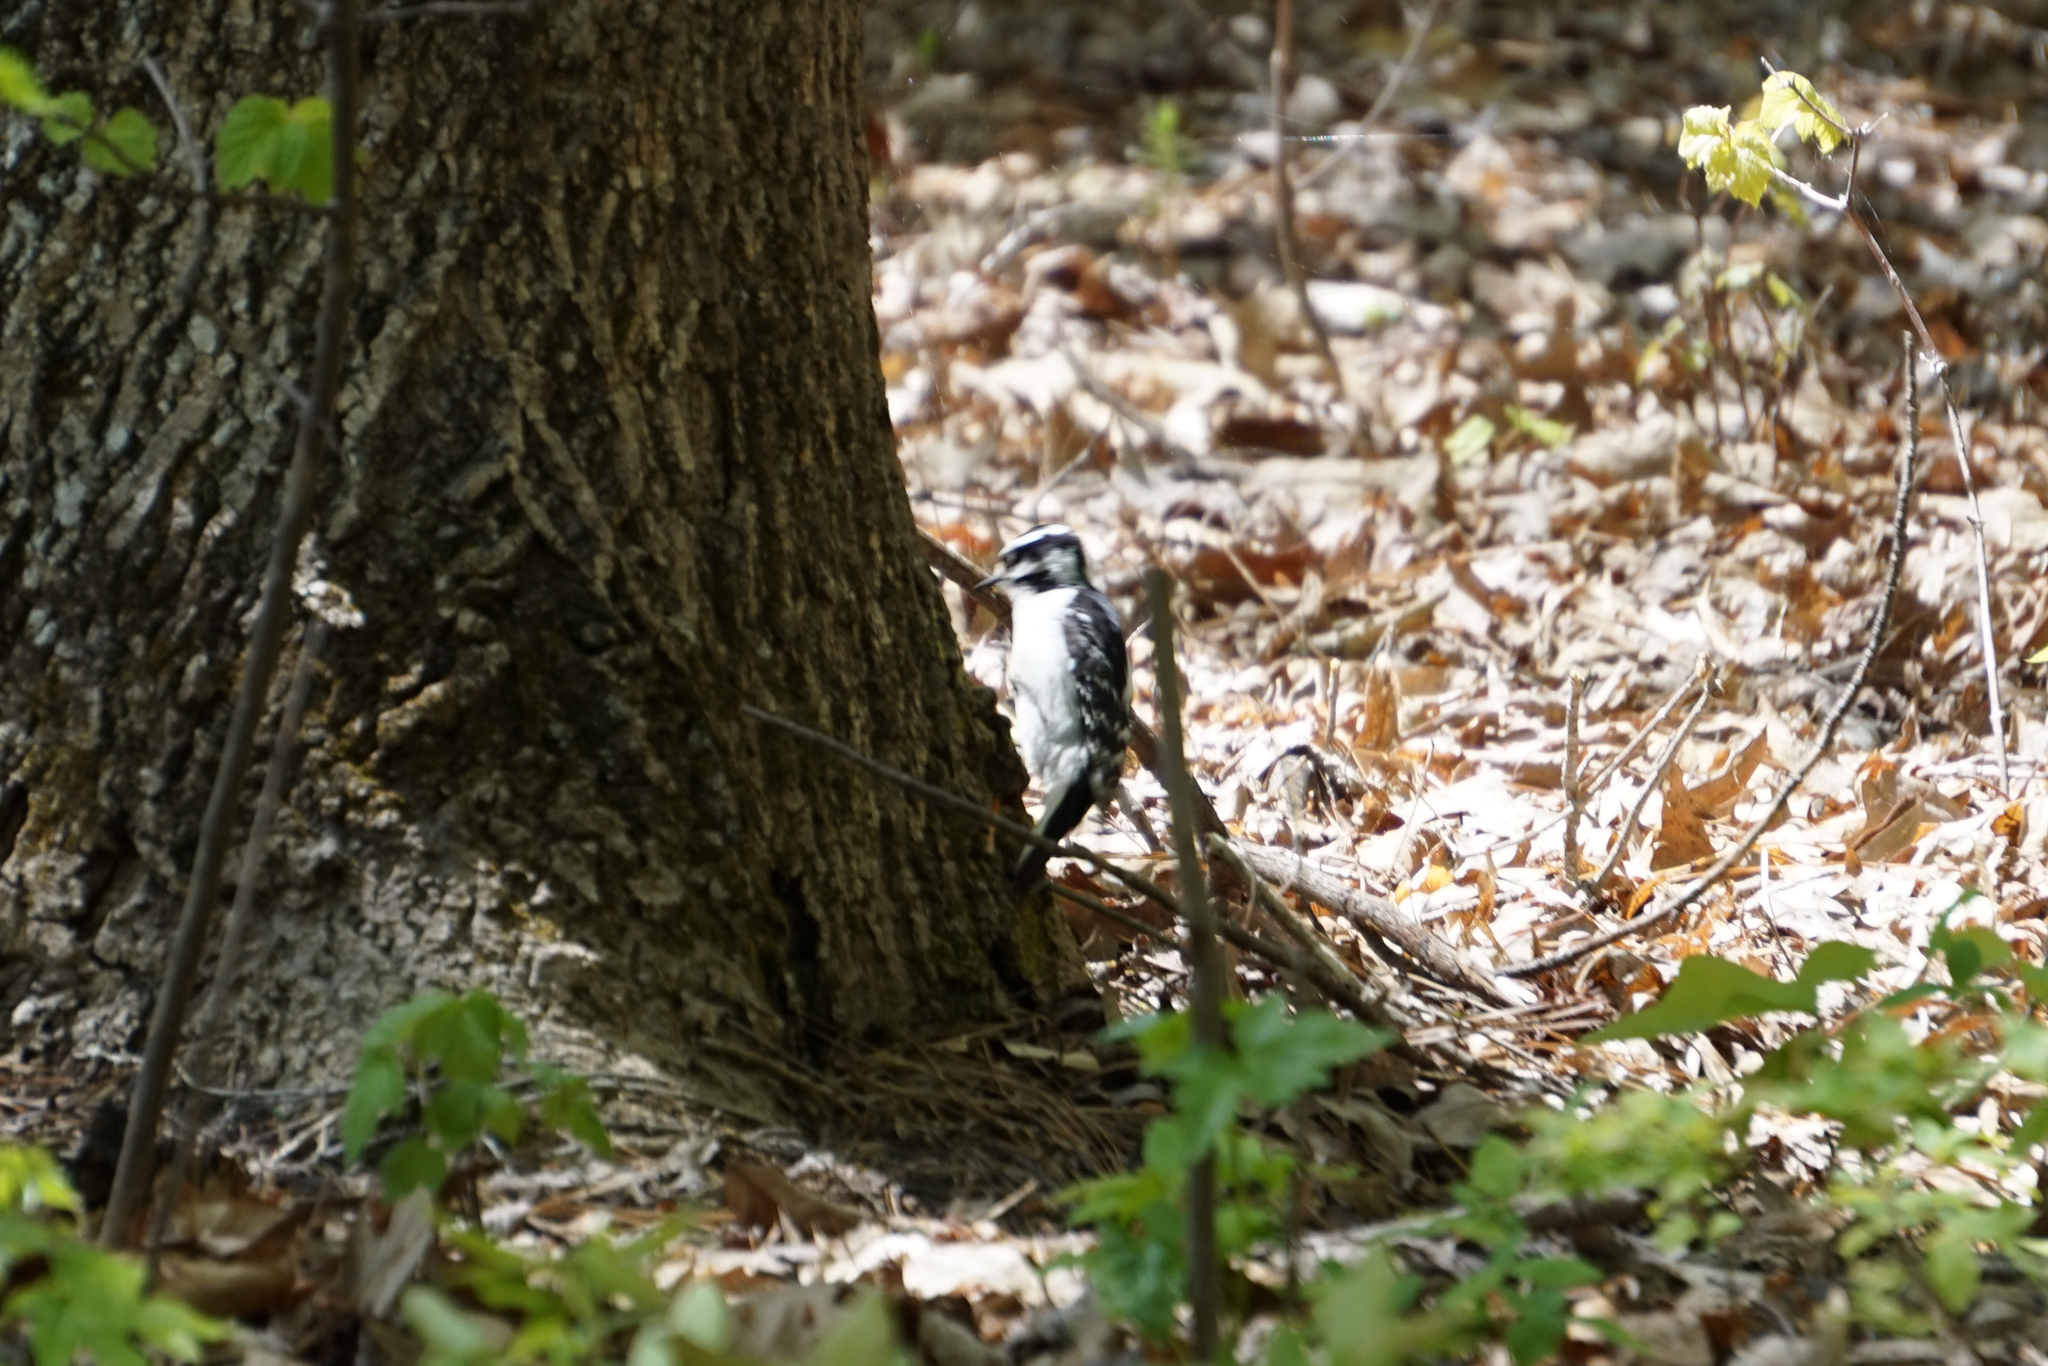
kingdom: Animalia
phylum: Chordata
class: Aves
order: Piciformes
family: Picidae
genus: Dryobates
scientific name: Dryobates pubescens
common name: Downy woodpecker
